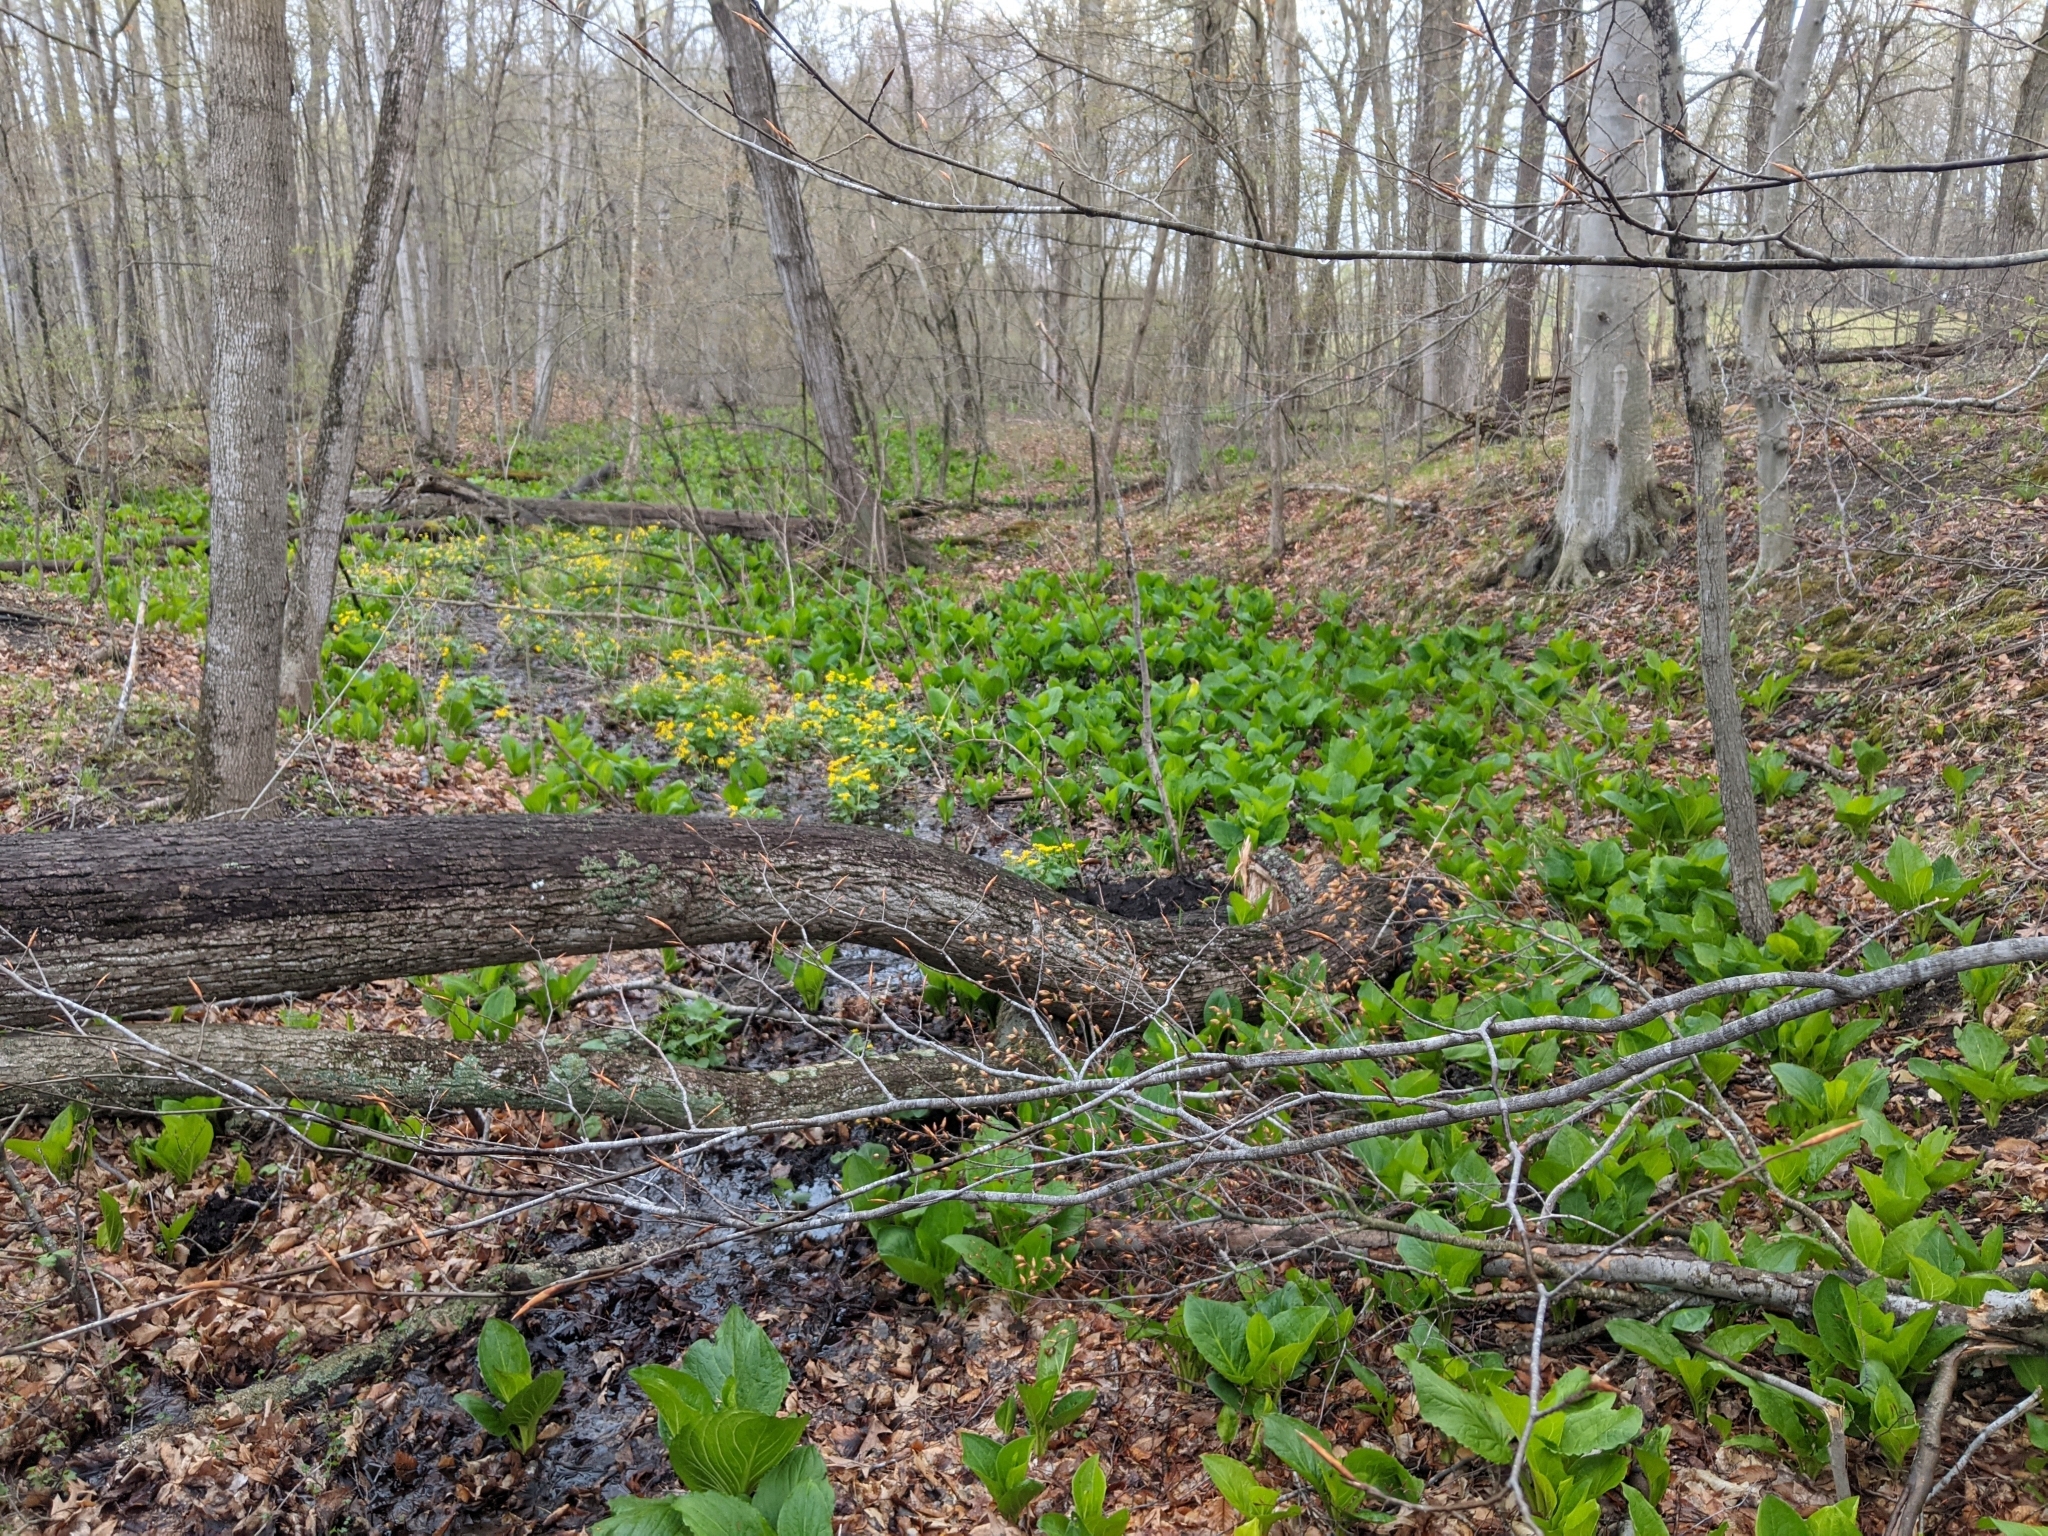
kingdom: Plantae
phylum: Tracheophyta
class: Liliopsida
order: Alismatales
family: Araceae
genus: Symplocarpus
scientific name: Symplocarpus foetidus
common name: Eastern skunk cabbage
